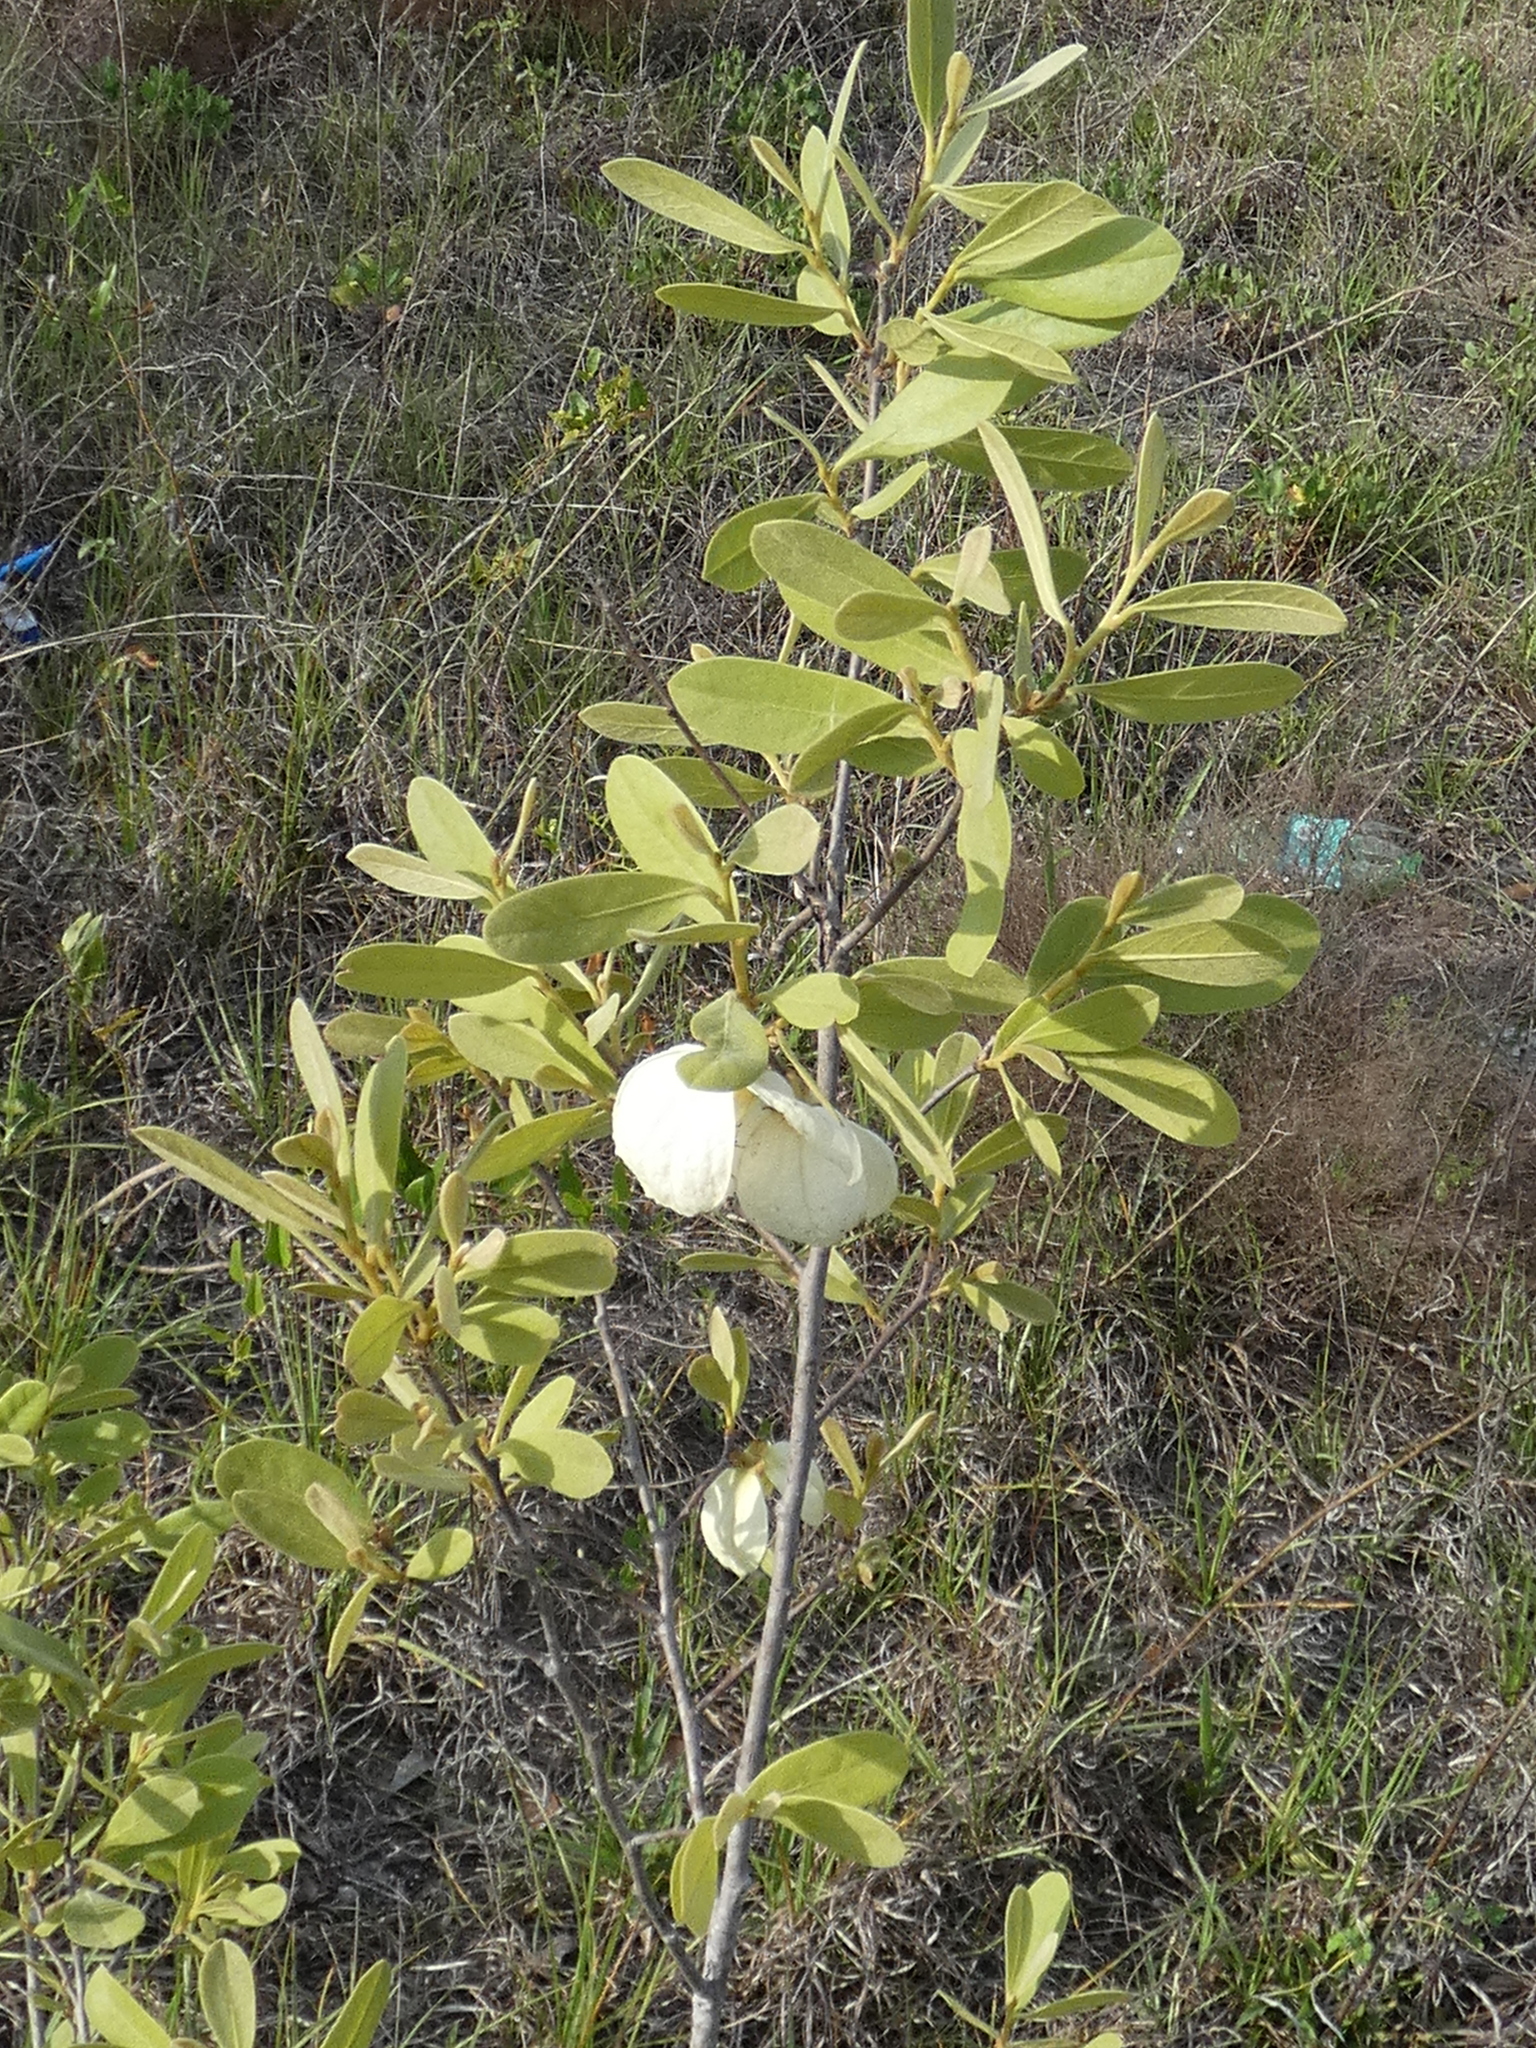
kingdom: Plantae
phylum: Tracheophyta
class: Magnoliopsida
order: Magnoliales
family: Annonaceae
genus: Asimina
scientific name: Asimina speciosa
